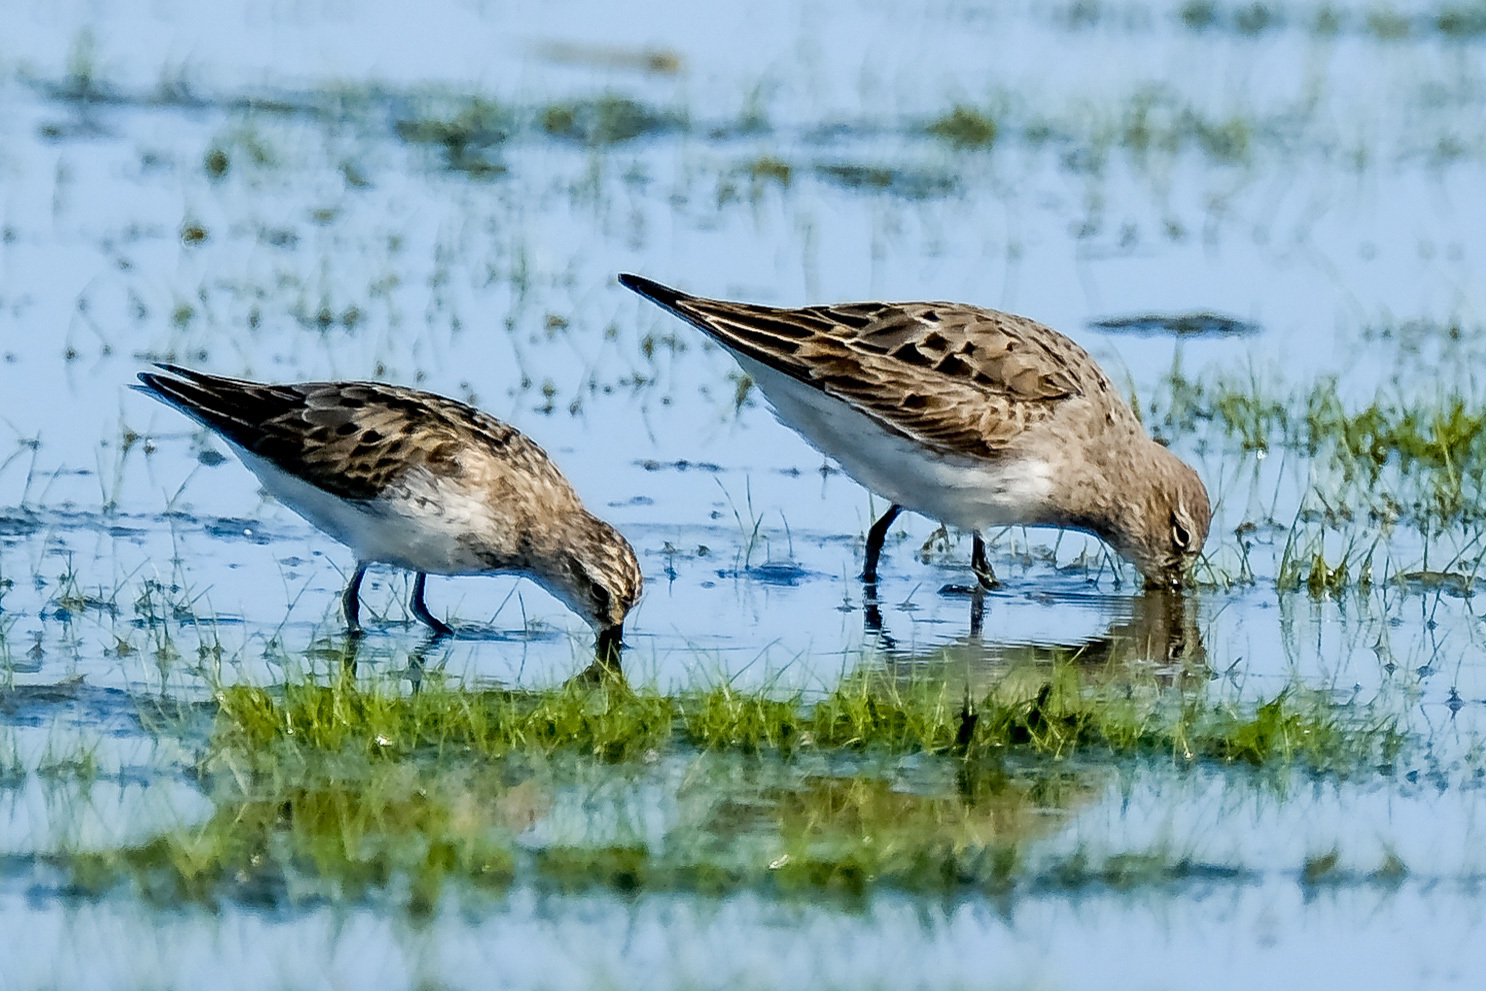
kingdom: Animalia
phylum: Chordata
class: Aves
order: Charadriiformes
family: Scolopacidae
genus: Calidris
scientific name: Calidris pusilla
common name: Semipalmated sandpiper
